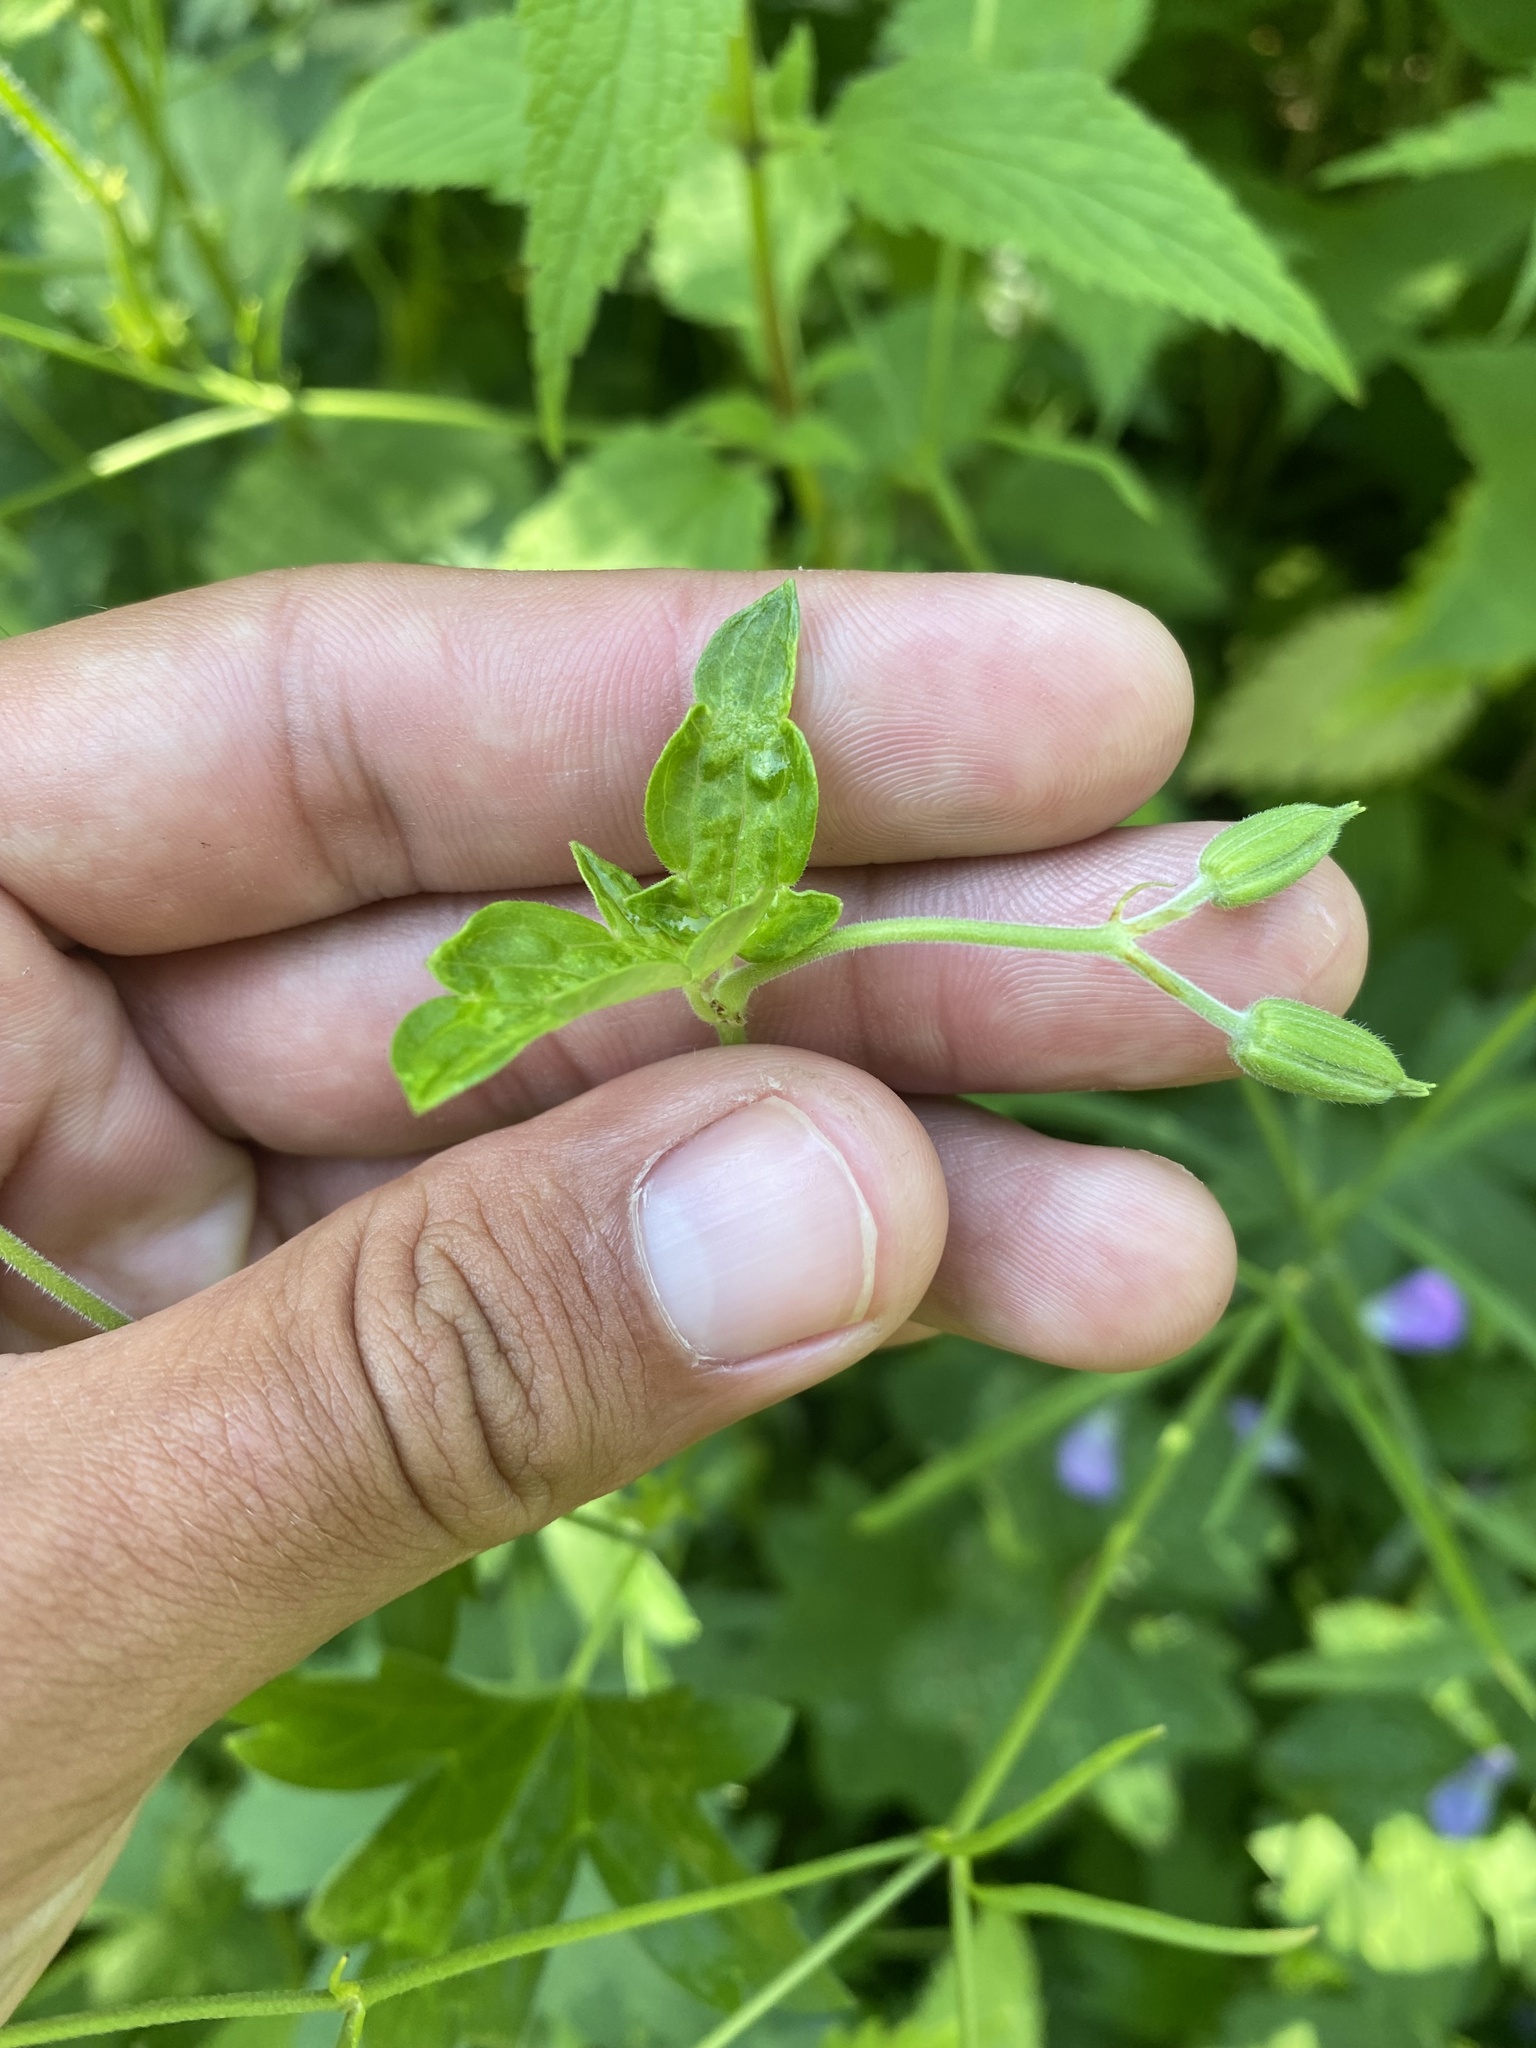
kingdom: Plantae
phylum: Tracheophyta
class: Magnoliopsida
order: Geraniales
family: Geraniaceae
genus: Geranium
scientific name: Geranium wlassovianum
